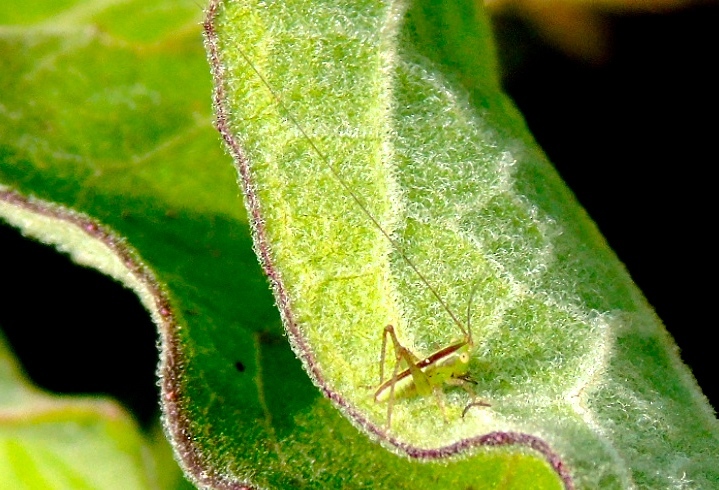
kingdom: Animalia
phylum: Arthropoda
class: Insecta
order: Orthoptera
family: Tettigoniidae
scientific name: Tettigoniidae
